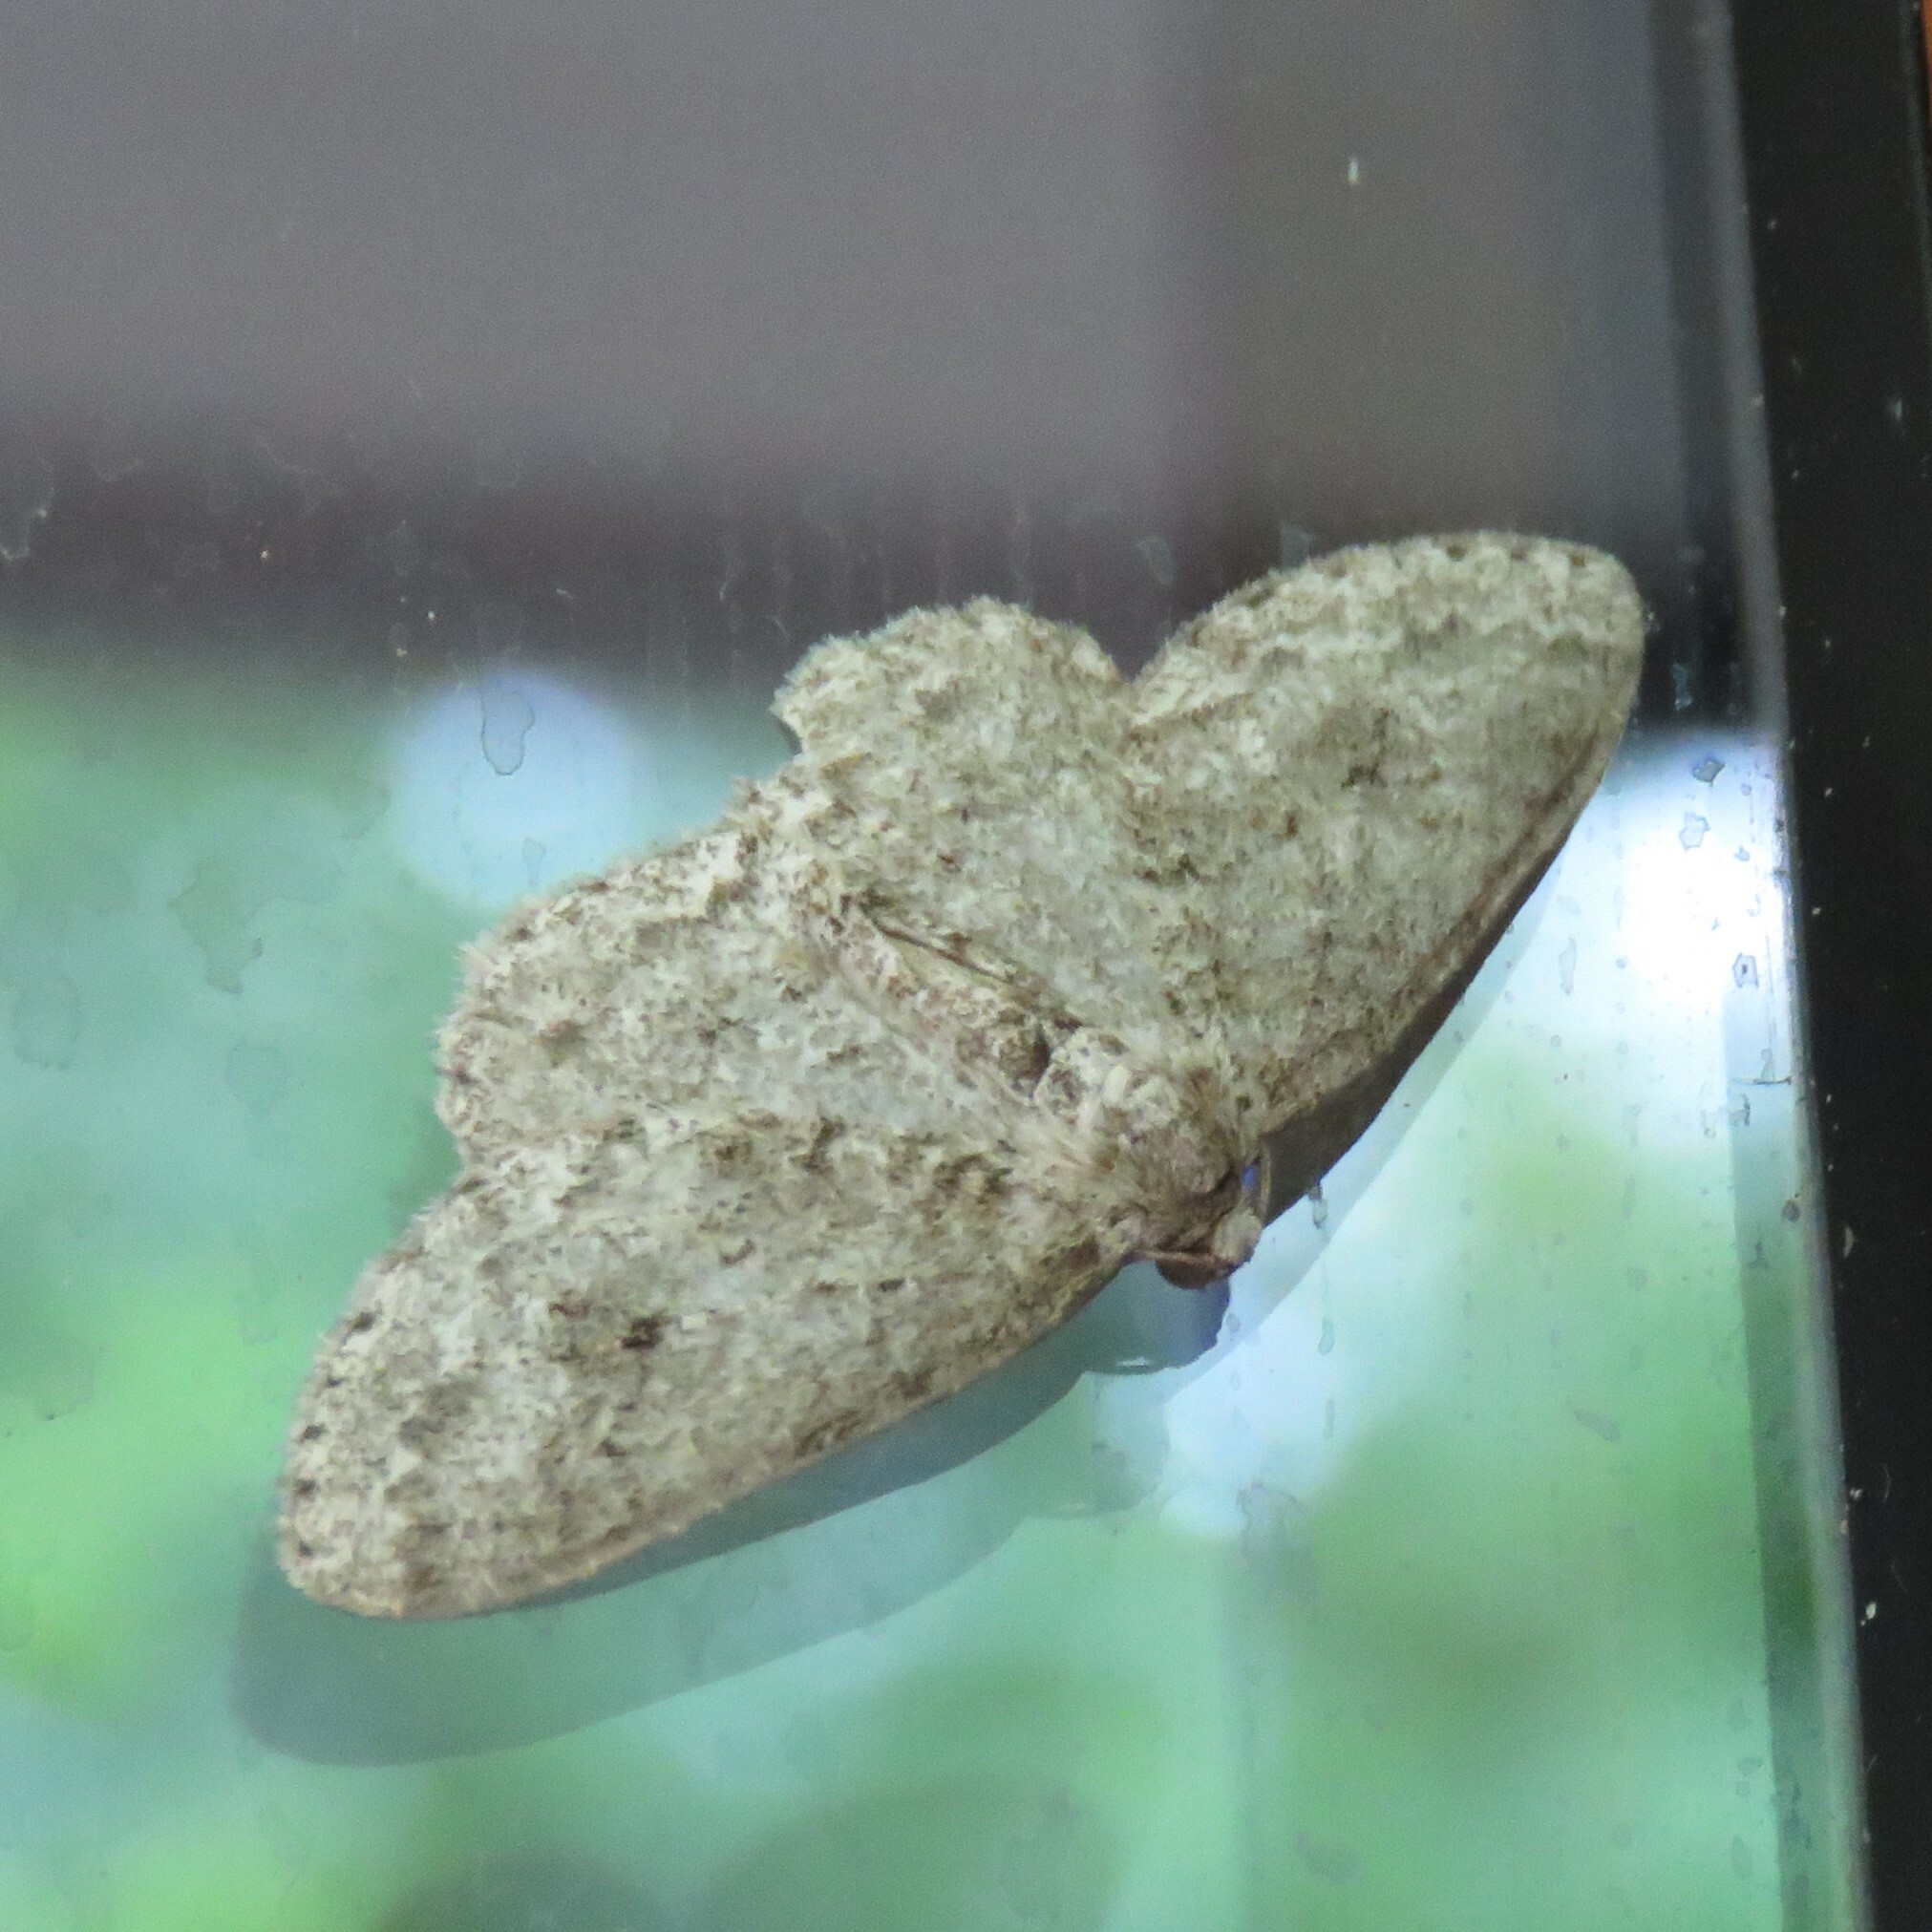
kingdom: Animalia
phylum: Arthropoda
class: Insecta
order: Lepidoptera
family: Geometridae
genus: Ectropis
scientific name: Ectropis crepuscularia
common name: Engrailed
